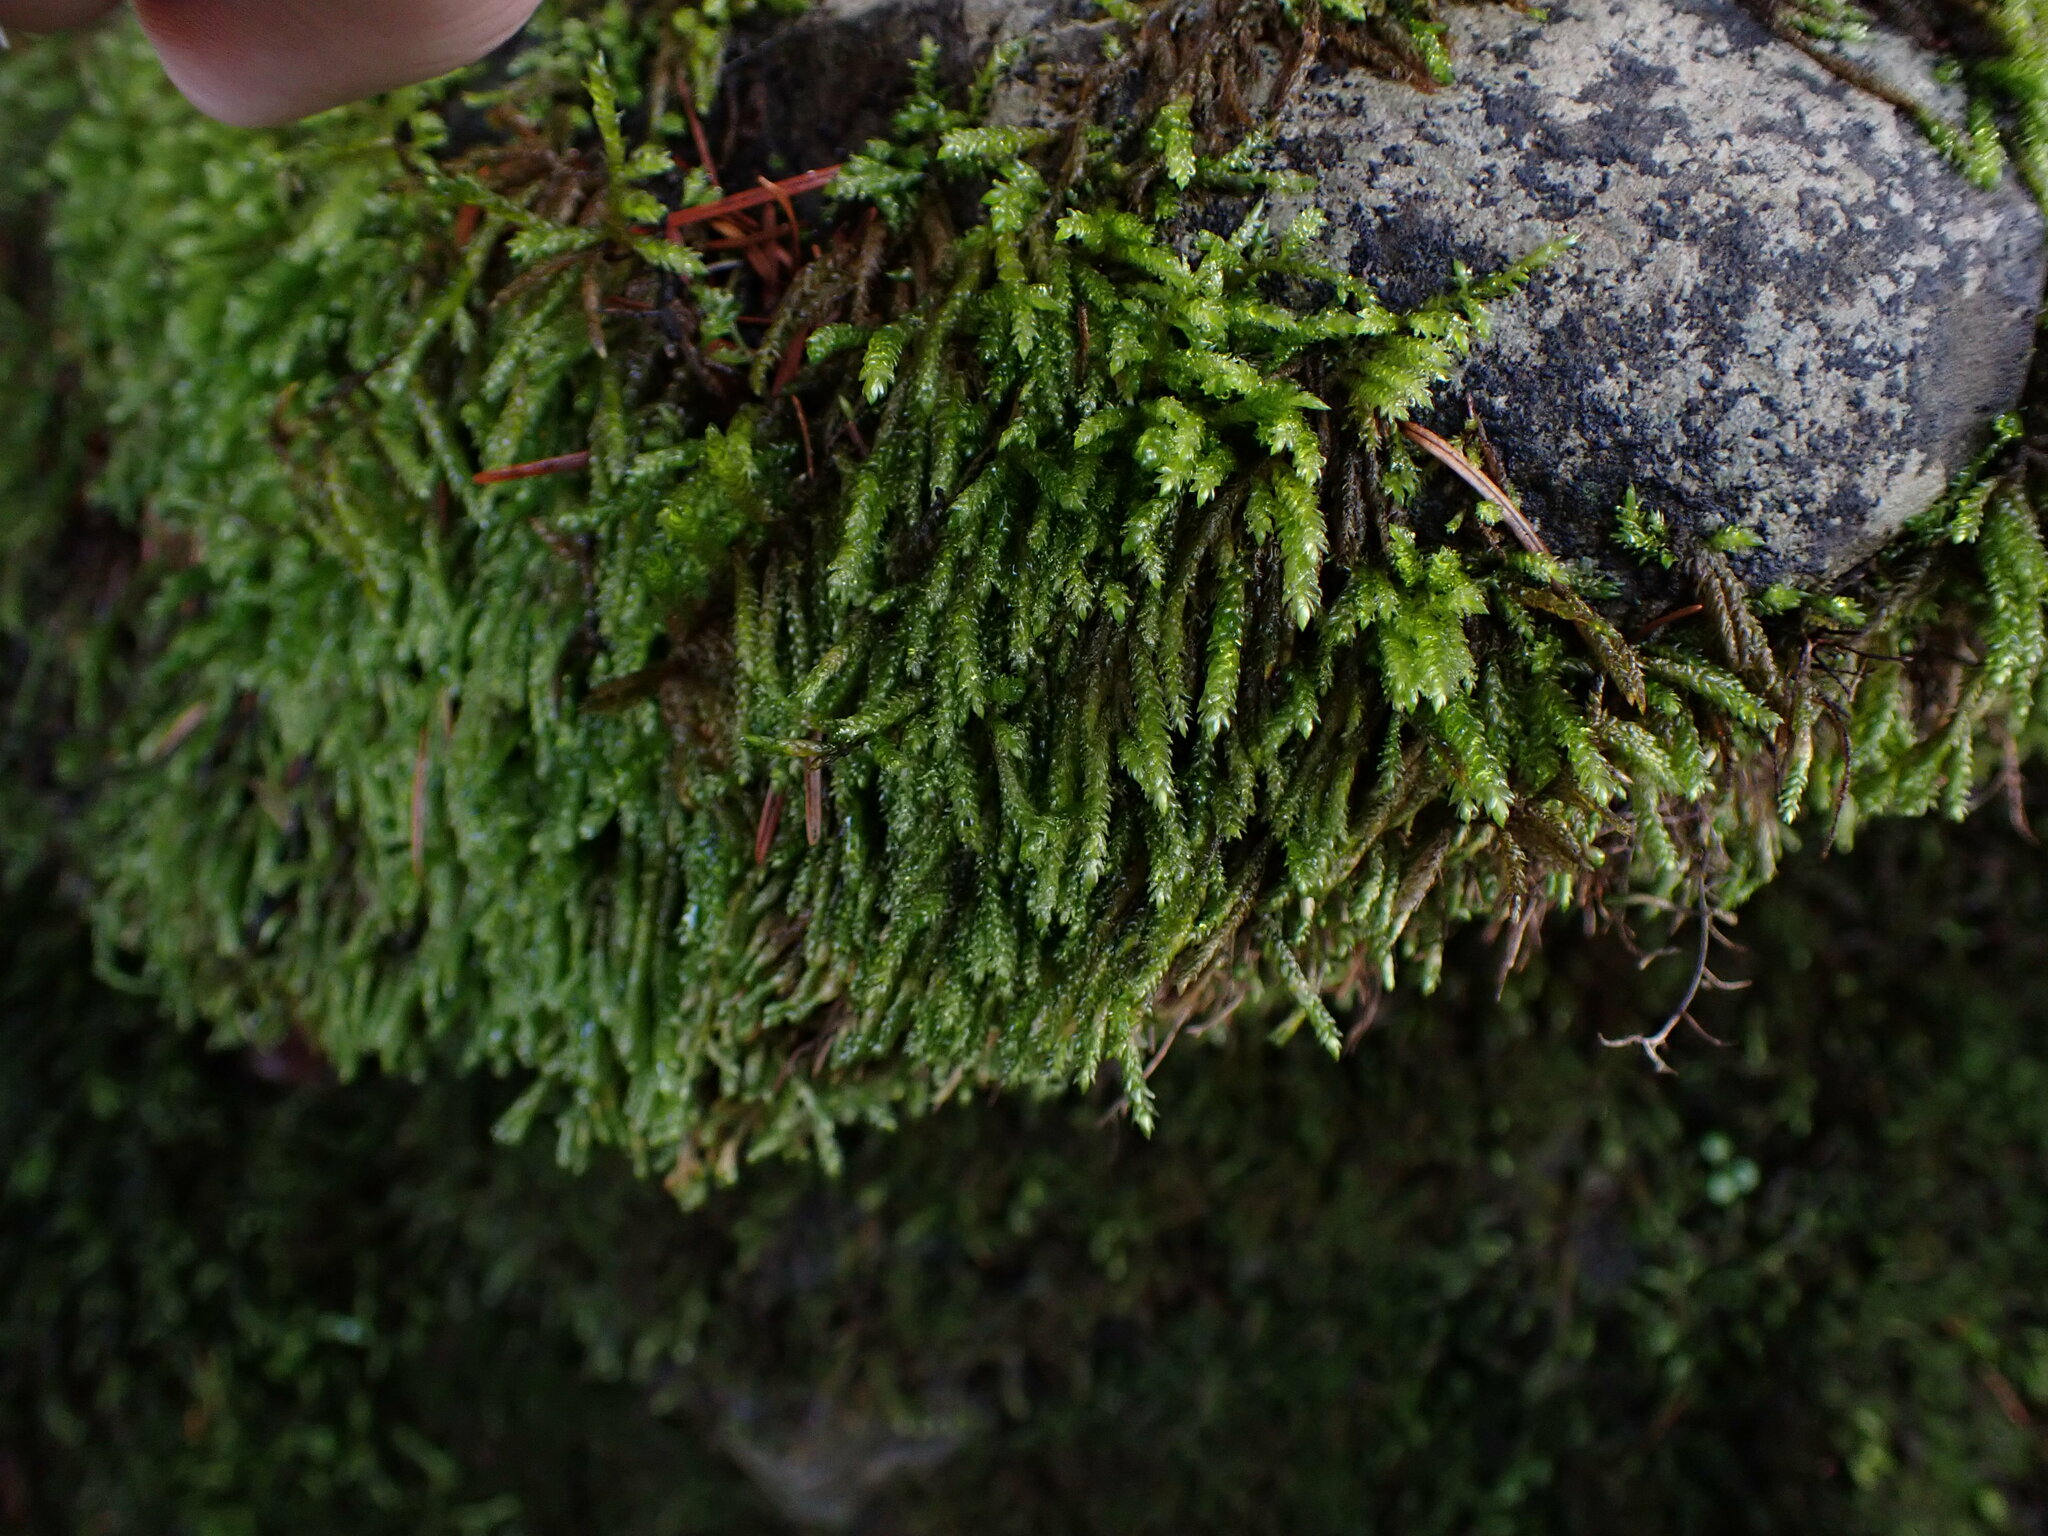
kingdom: Plantae
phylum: Bryophyta
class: Bryopsida
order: Hypnales
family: Brachytheciaceae
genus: Scleropodium
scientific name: Scleropodium obtusifolium
